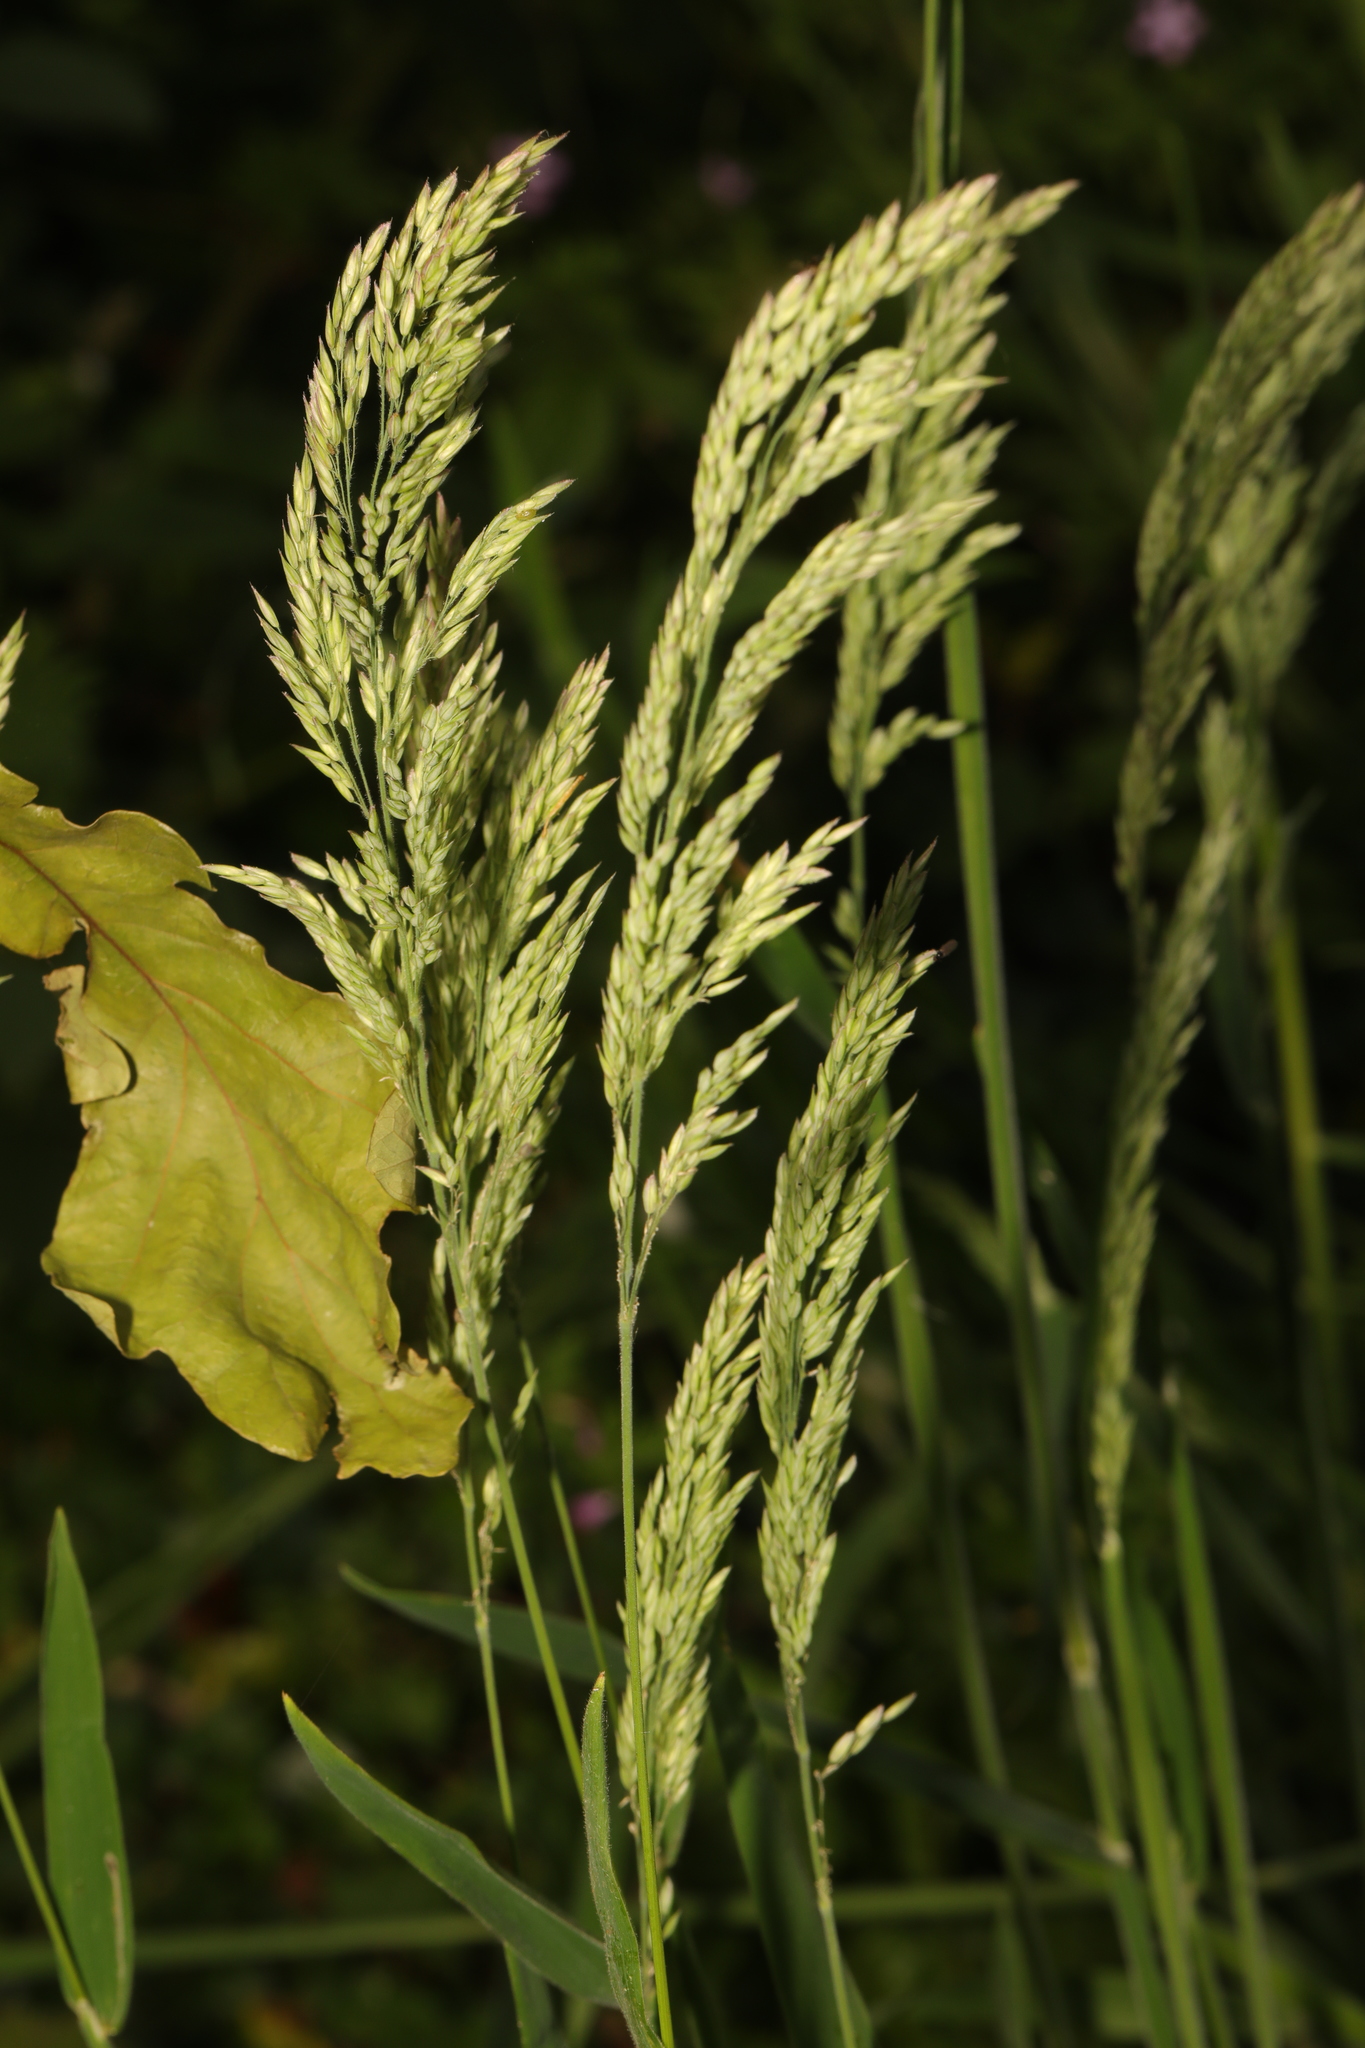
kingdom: Plantae
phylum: Tracheophyta
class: Liliopsida
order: Poales
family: Poaceae
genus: Holcus
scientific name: Holcus lanatus
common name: Yorkshire-fog
